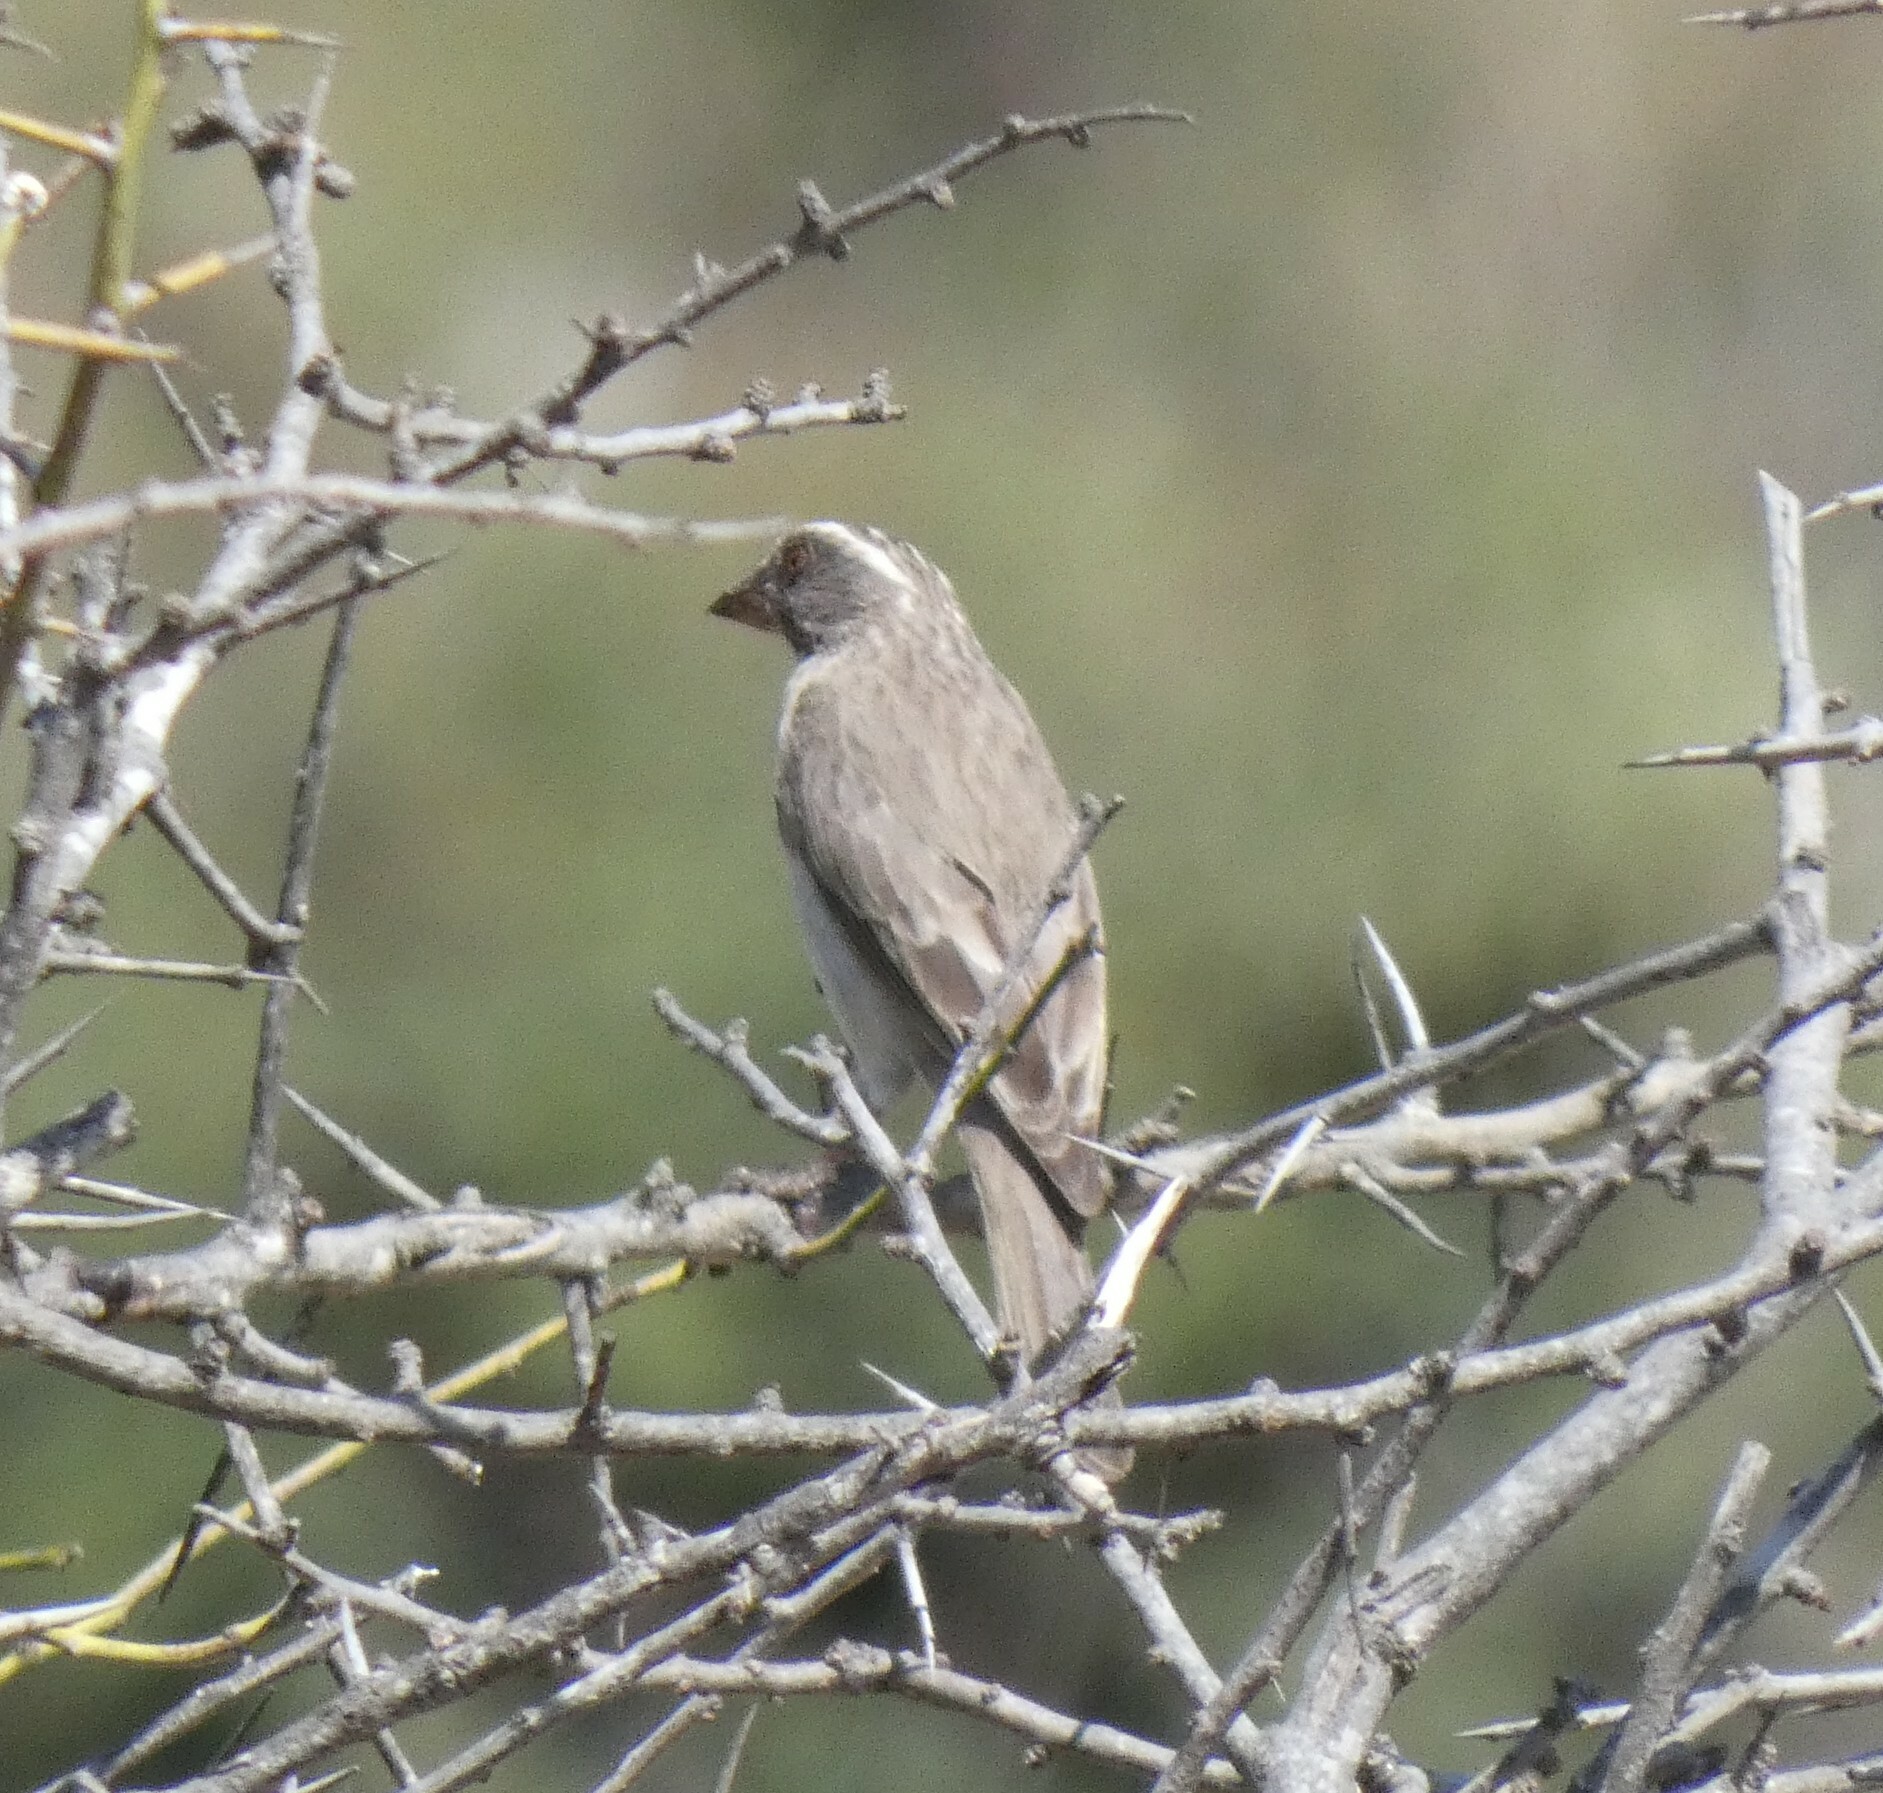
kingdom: Animalia
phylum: Chordata
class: Aves
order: Passeriformes
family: Fringillidae
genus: Crithagra
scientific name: Crithagra gularis
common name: Streaky-headed seedeater
